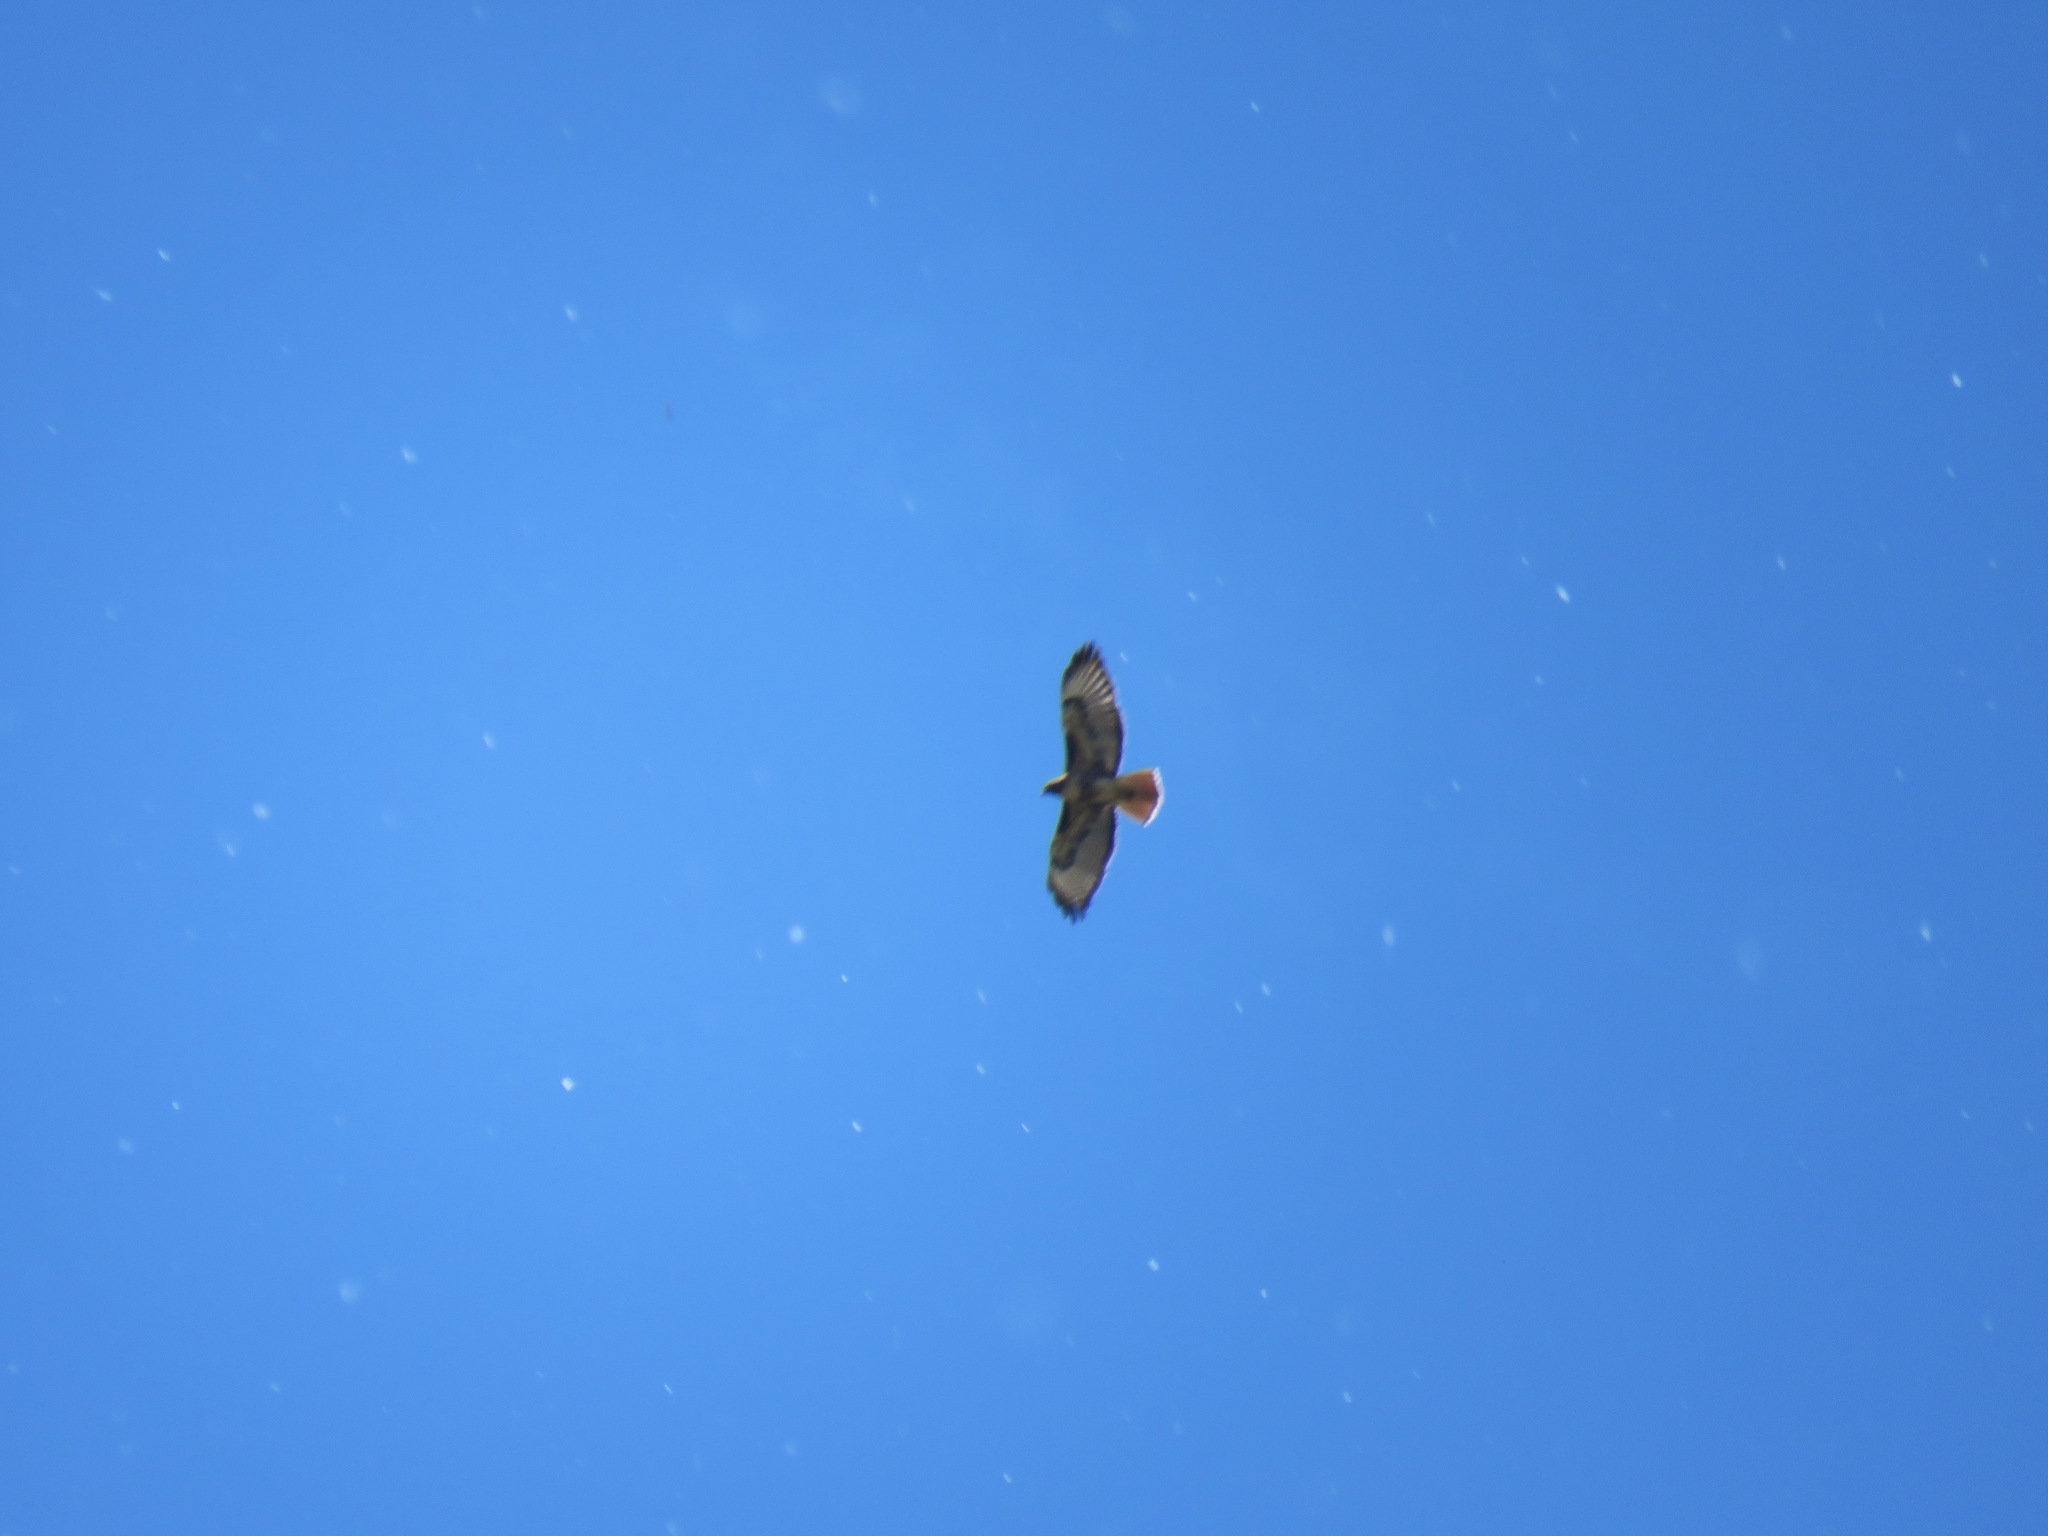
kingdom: Animalia
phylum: Chordata
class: Aves
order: Accipitriformes
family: Accipitridae
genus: Buteo
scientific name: Buteo jamaicensis
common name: Red-tailed hawk
